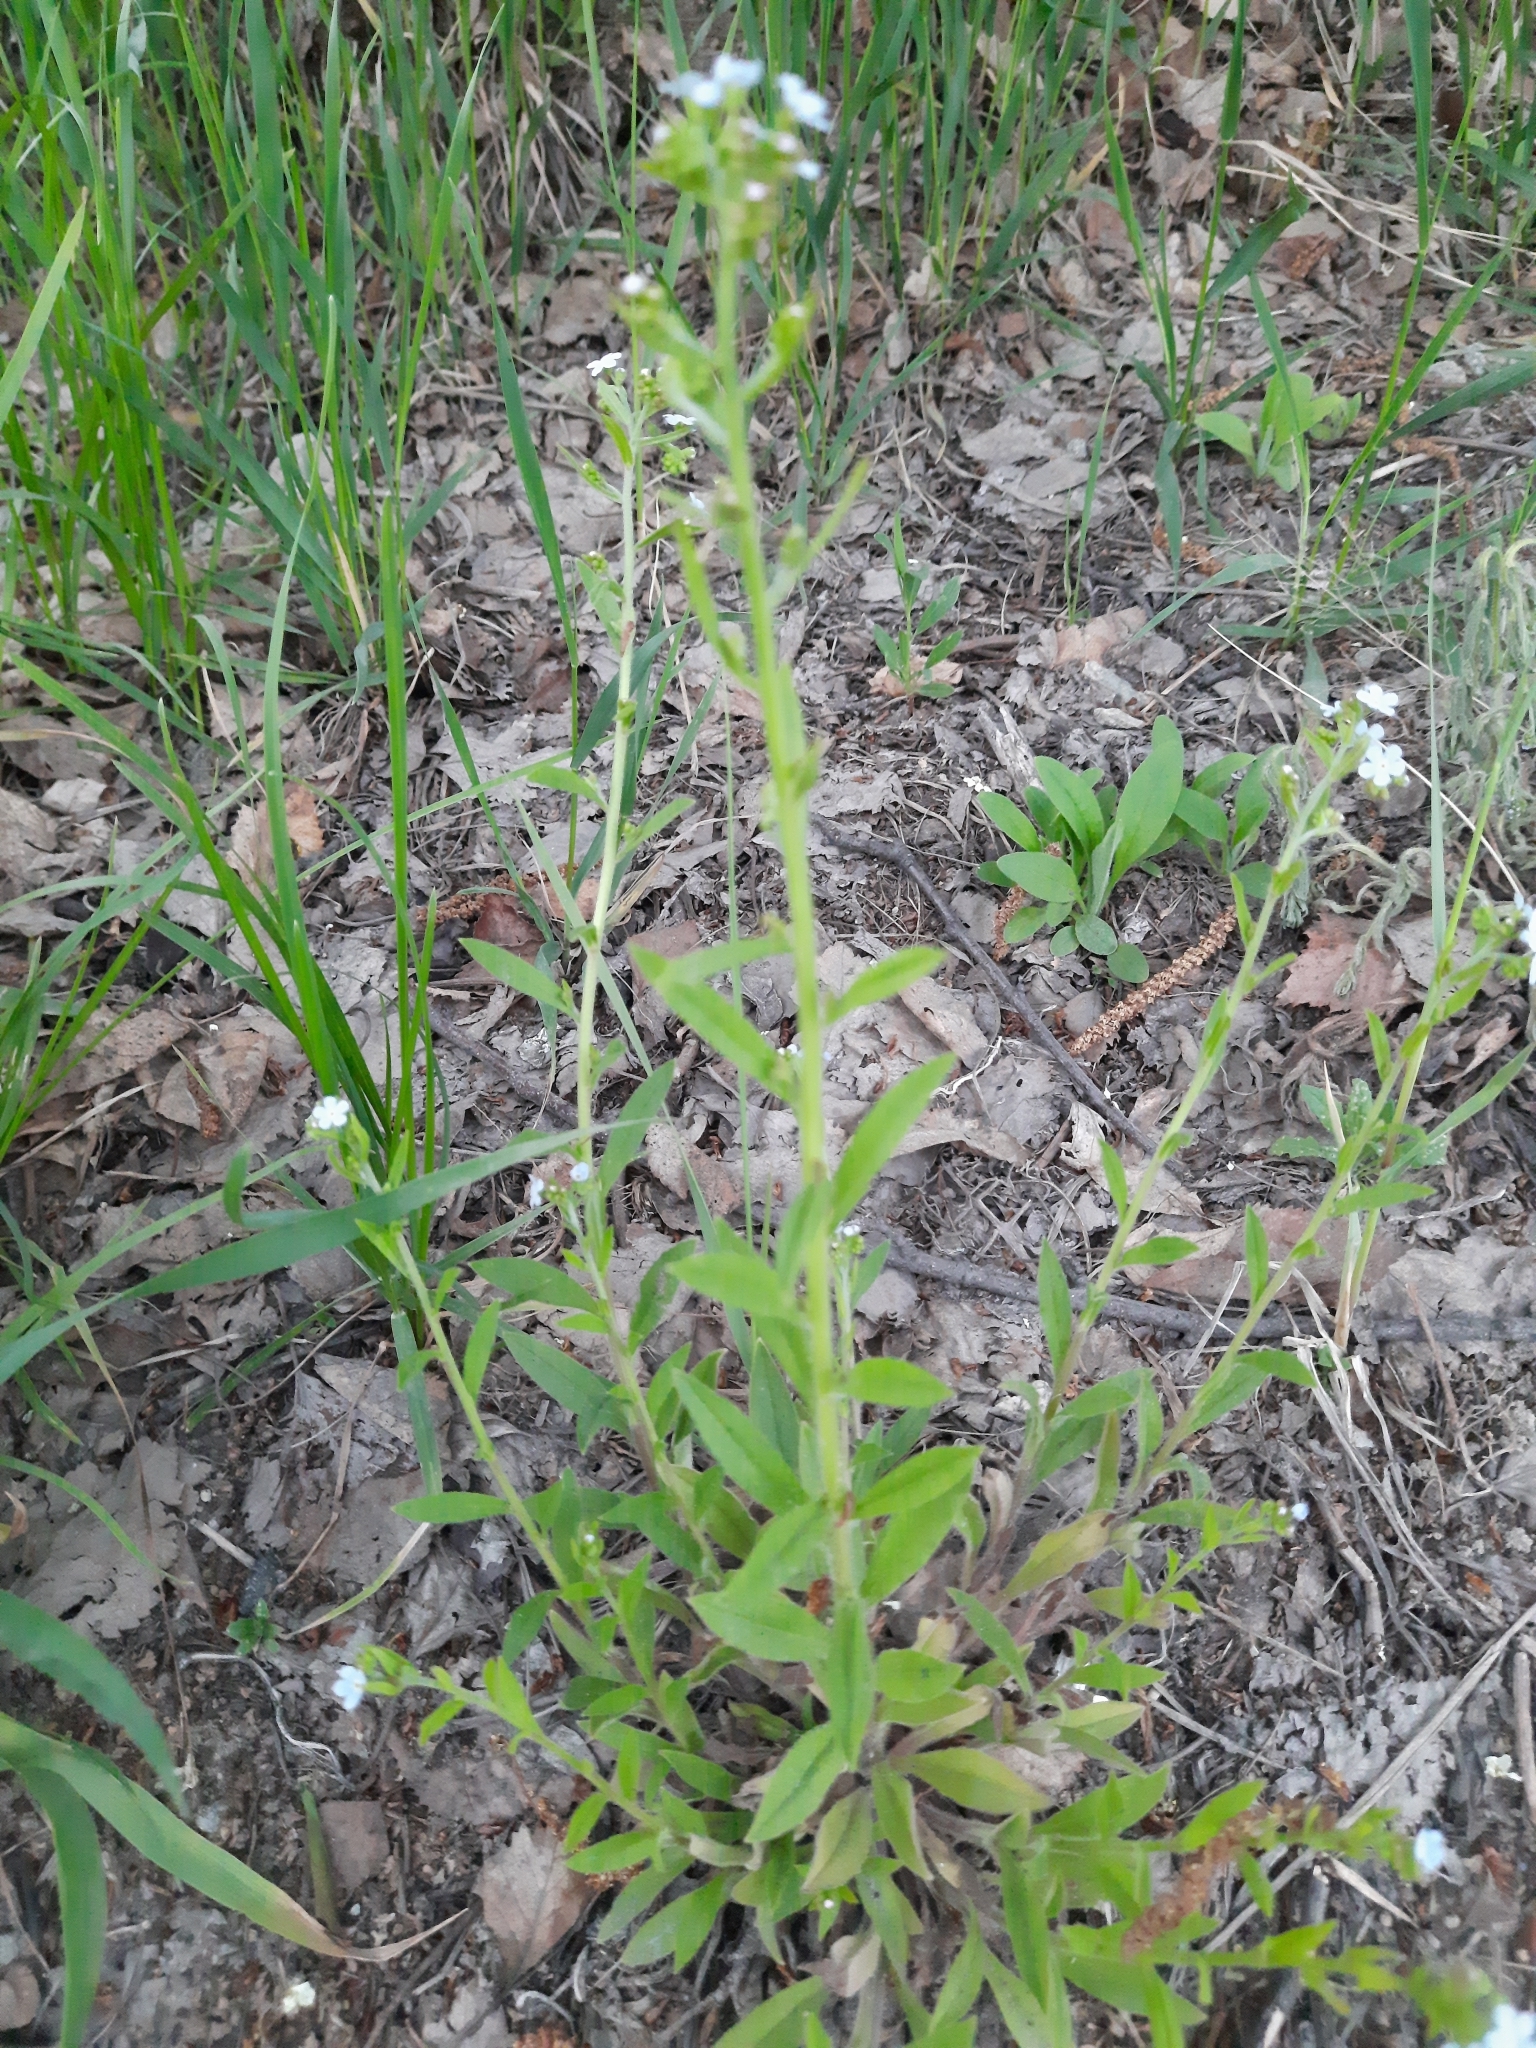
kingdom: Plantae
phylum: Tracheophyta
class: Magnoliopsida
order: Boraginales
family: Boraginaceae
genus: Hackelia
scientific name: Hackelia deflexa
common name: Nodding stickseed
